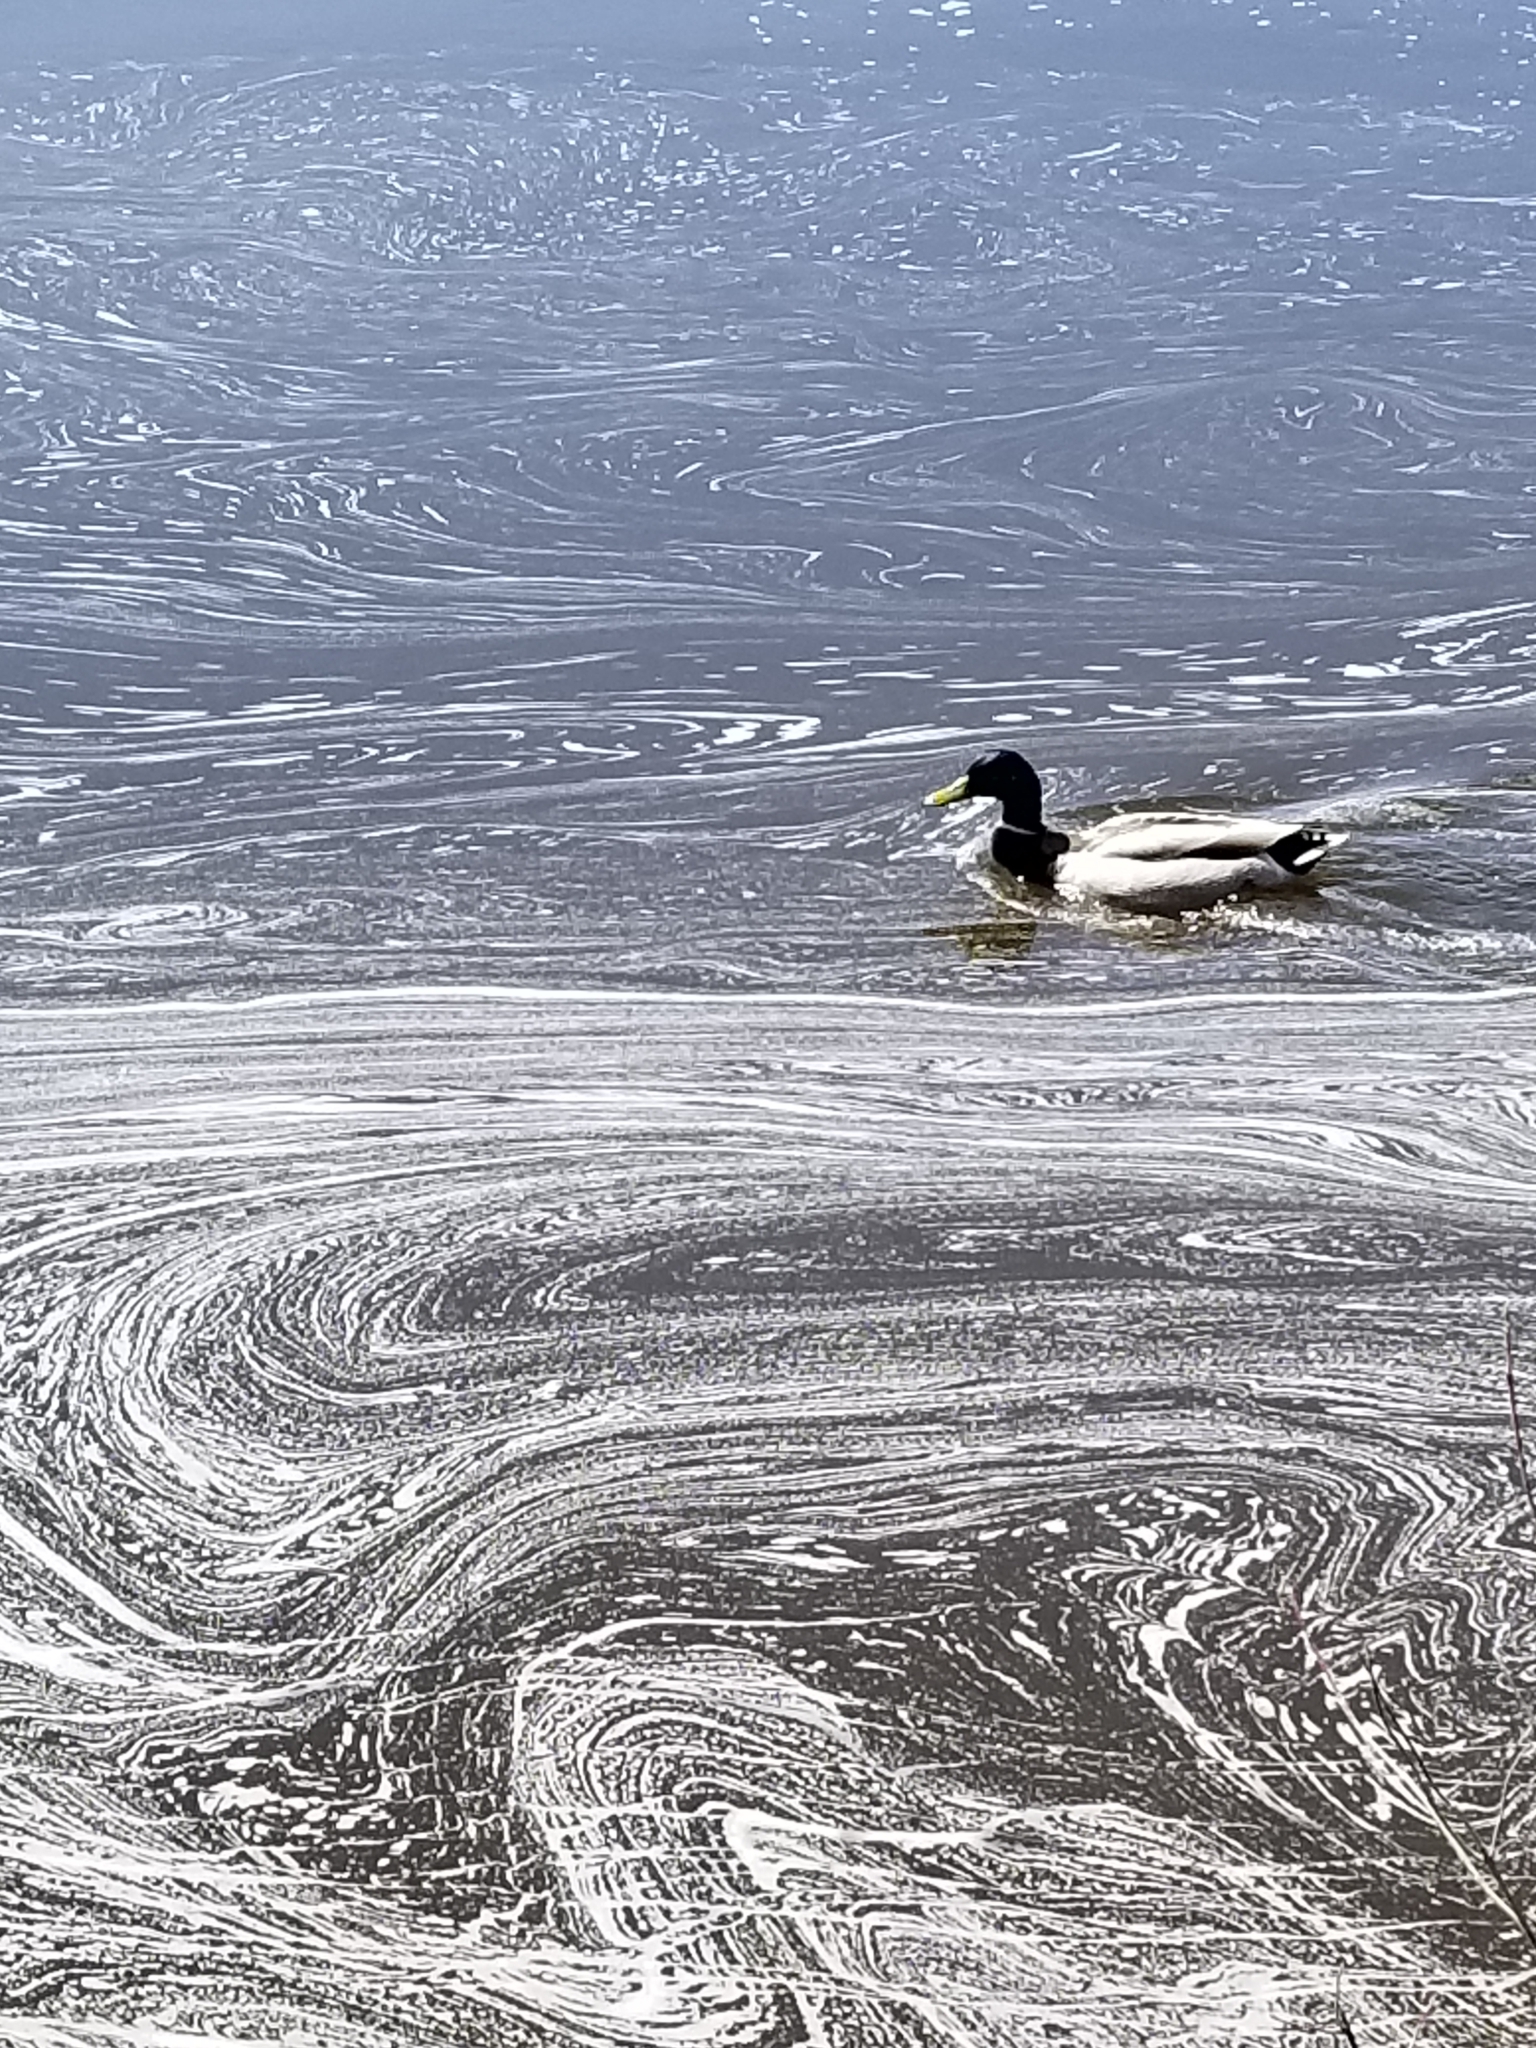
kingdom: Animalia
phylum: Chordata
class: Aves
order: Anseriformes
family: Anatidae
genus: Anas
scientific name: Anas platyrhynchos
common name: Mallard
